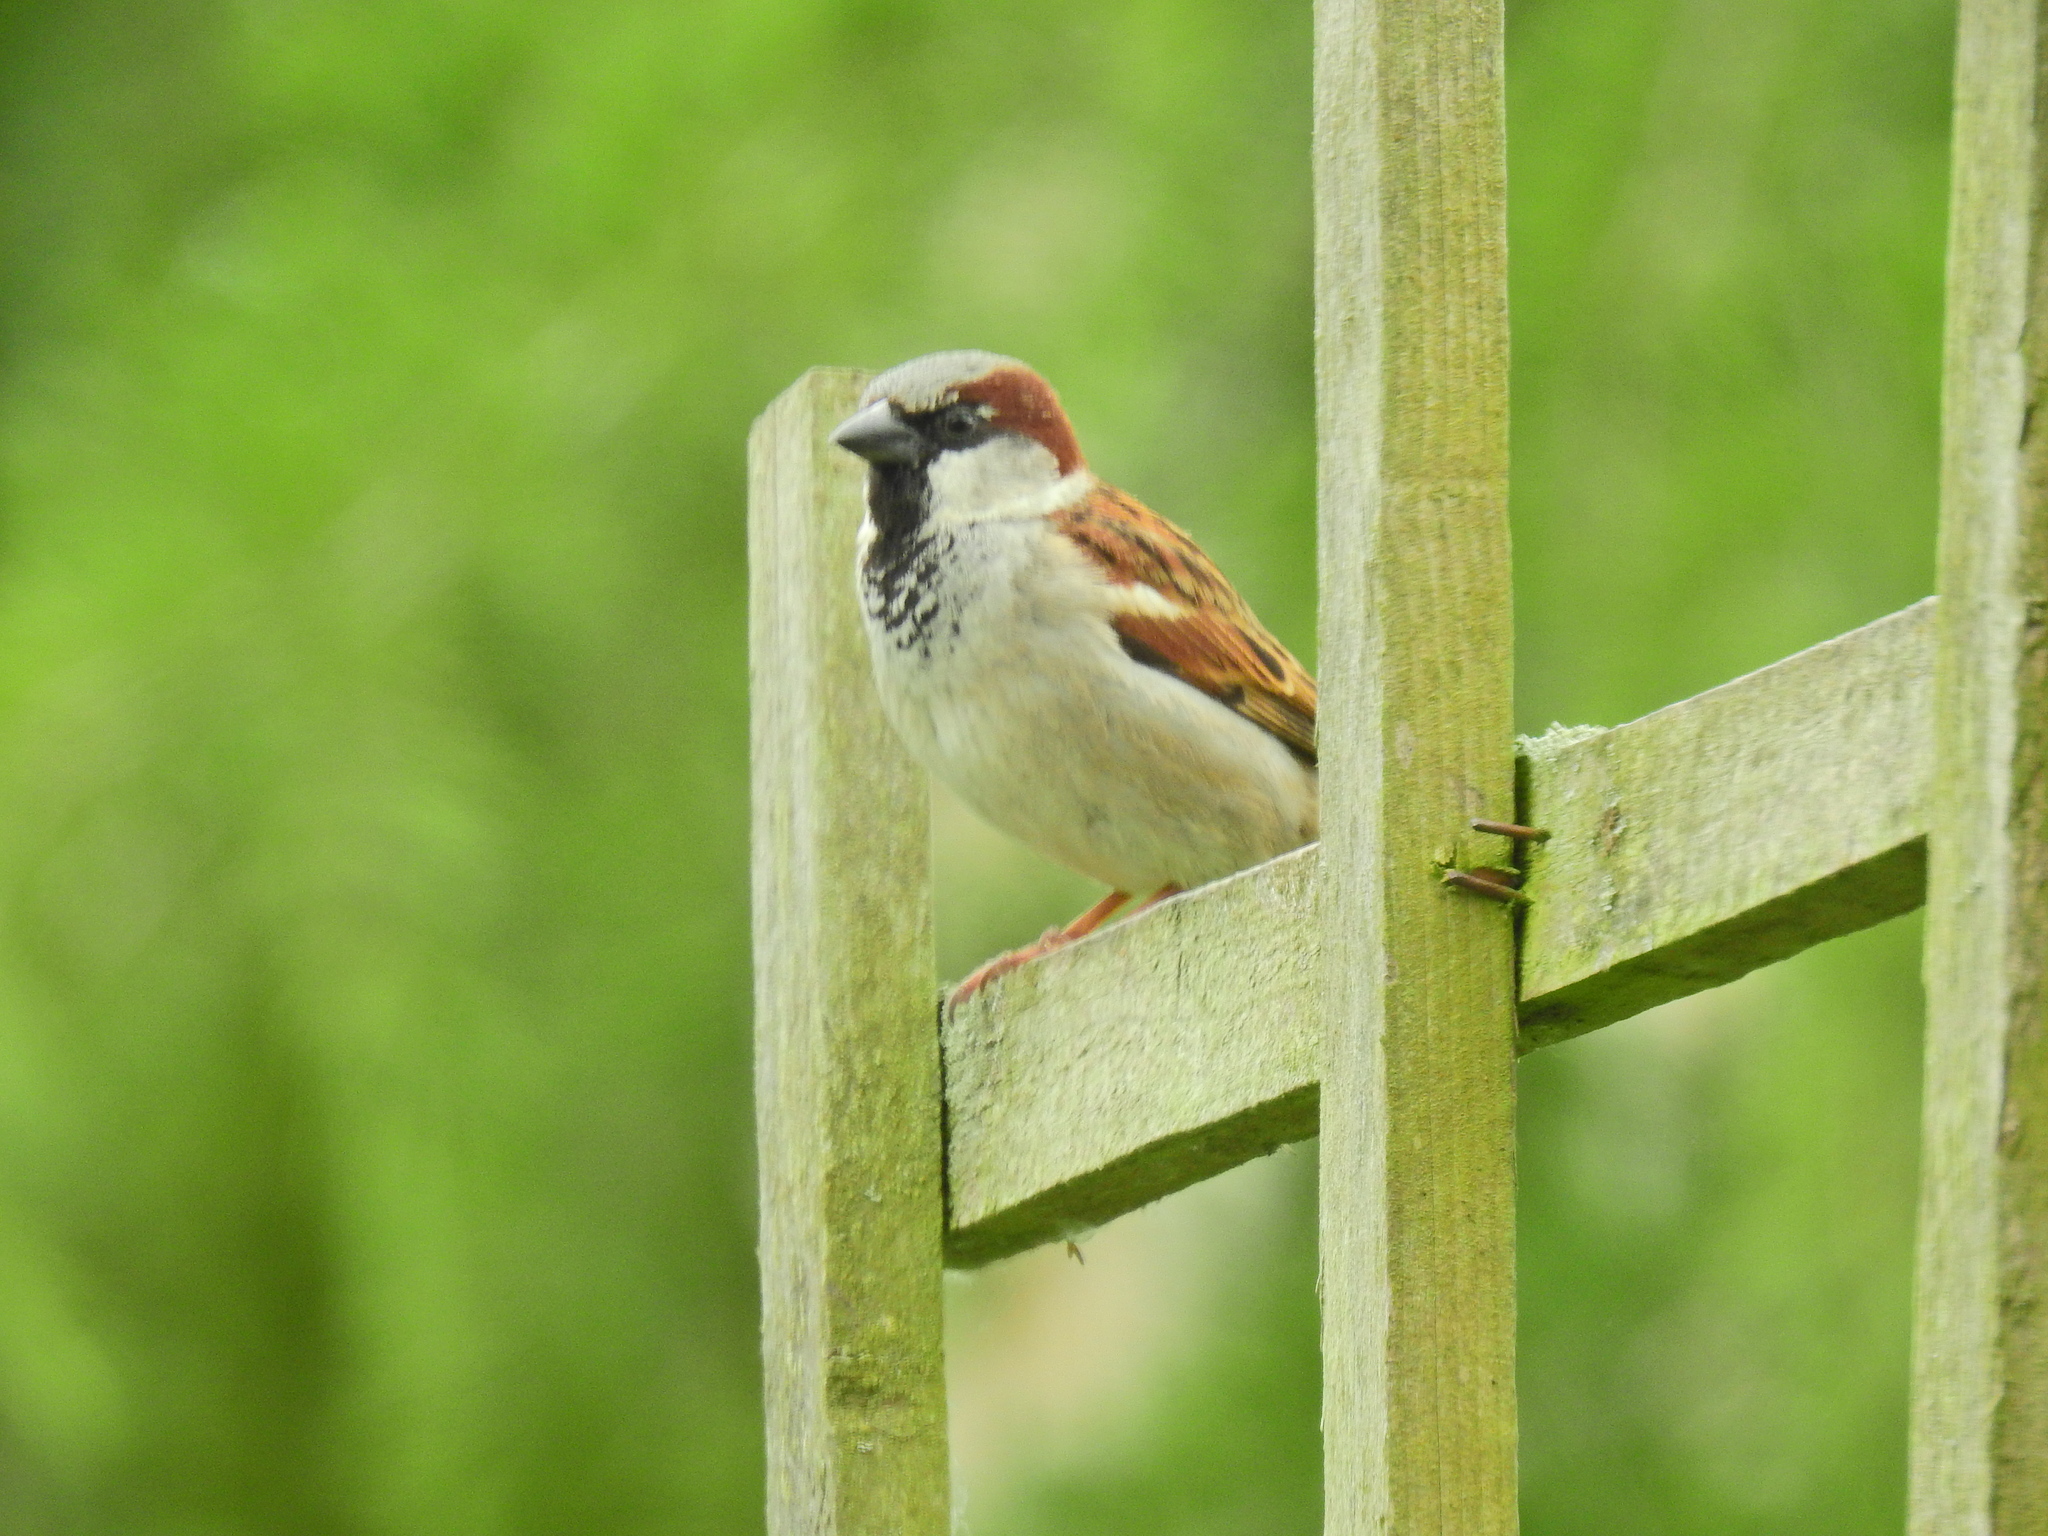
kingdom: Animalia
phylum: Chordata
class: Aves
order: Passeriformes
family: Passeridae
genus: Passer
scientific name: Passer domesticus
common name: House sparrow
